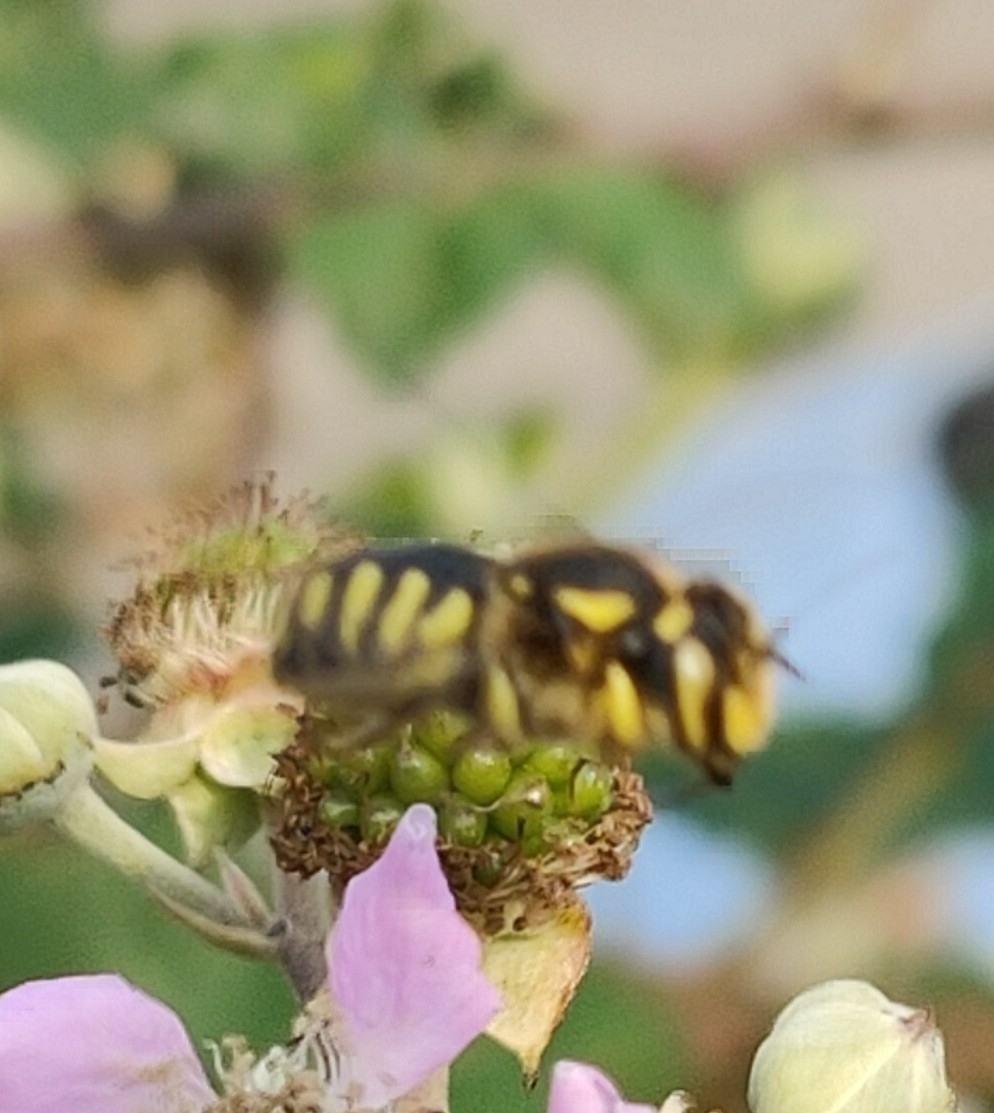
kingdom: Animalia
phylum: Arthropoda
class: Insecta
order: Hymenoptera
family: Megachilidae
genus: Anthidium
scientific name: Anthidium florentinum
